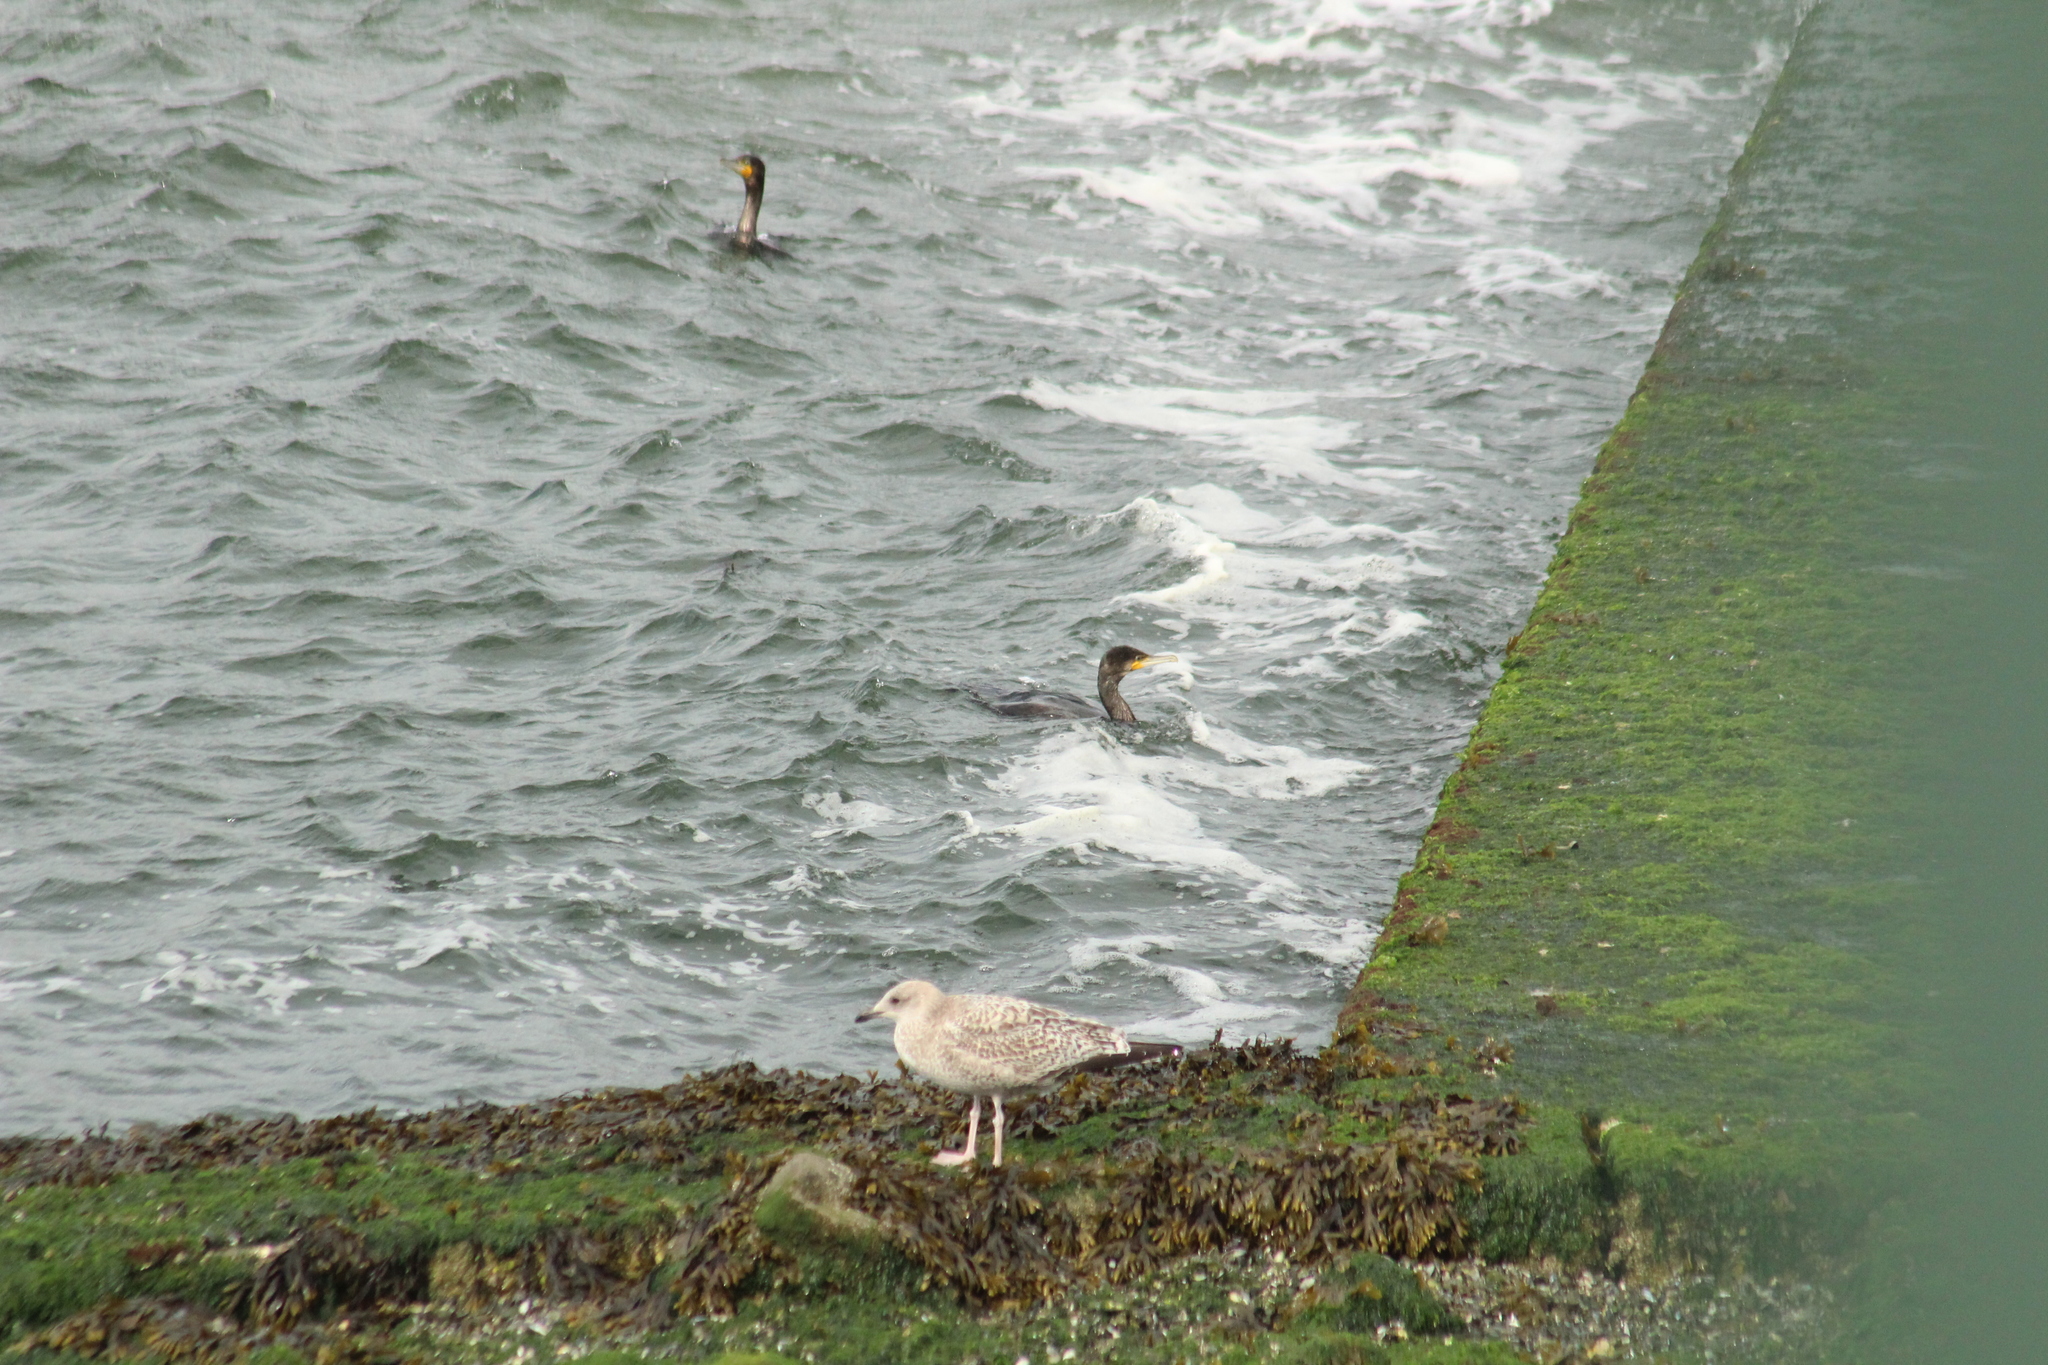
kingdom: Animalia
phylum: Chordata
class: Aves
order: Suliformes
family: Phalacrocoracidae
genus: Phalacrocorax
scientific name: Phalacrocorax carbo
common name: Great cormorant
